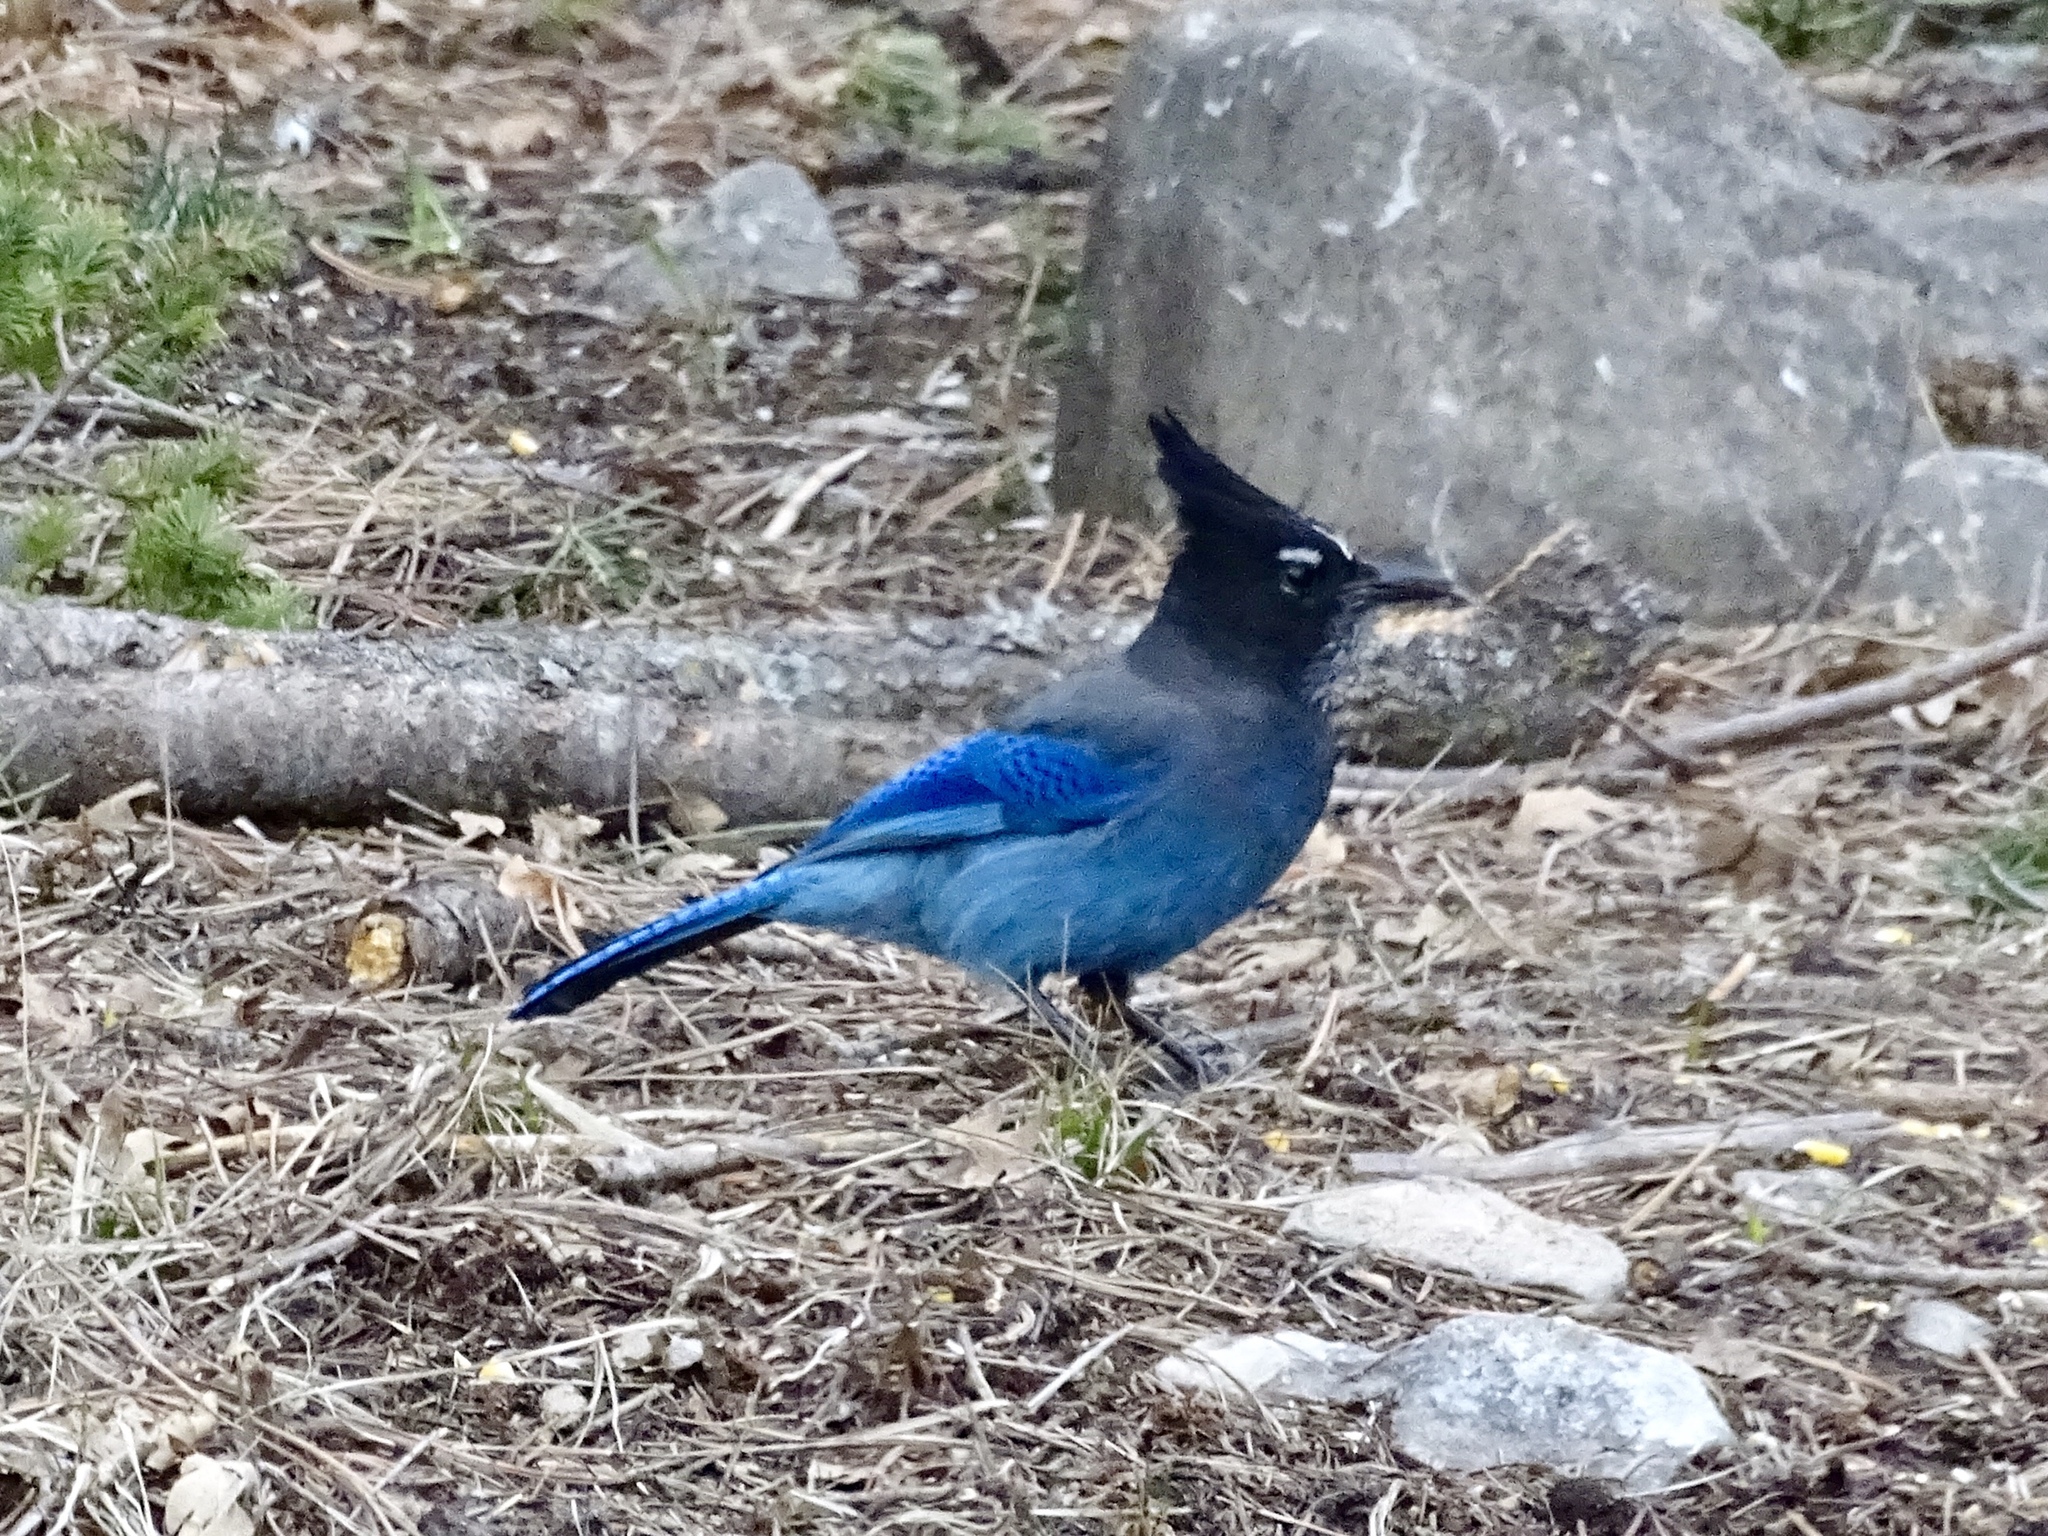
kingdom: Animalia
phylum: Chordata
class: Aves
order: Passeriformes
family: Corvidae
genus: Cyanocitta
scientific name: Cyanocitta stelleri
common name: Steller's jay
